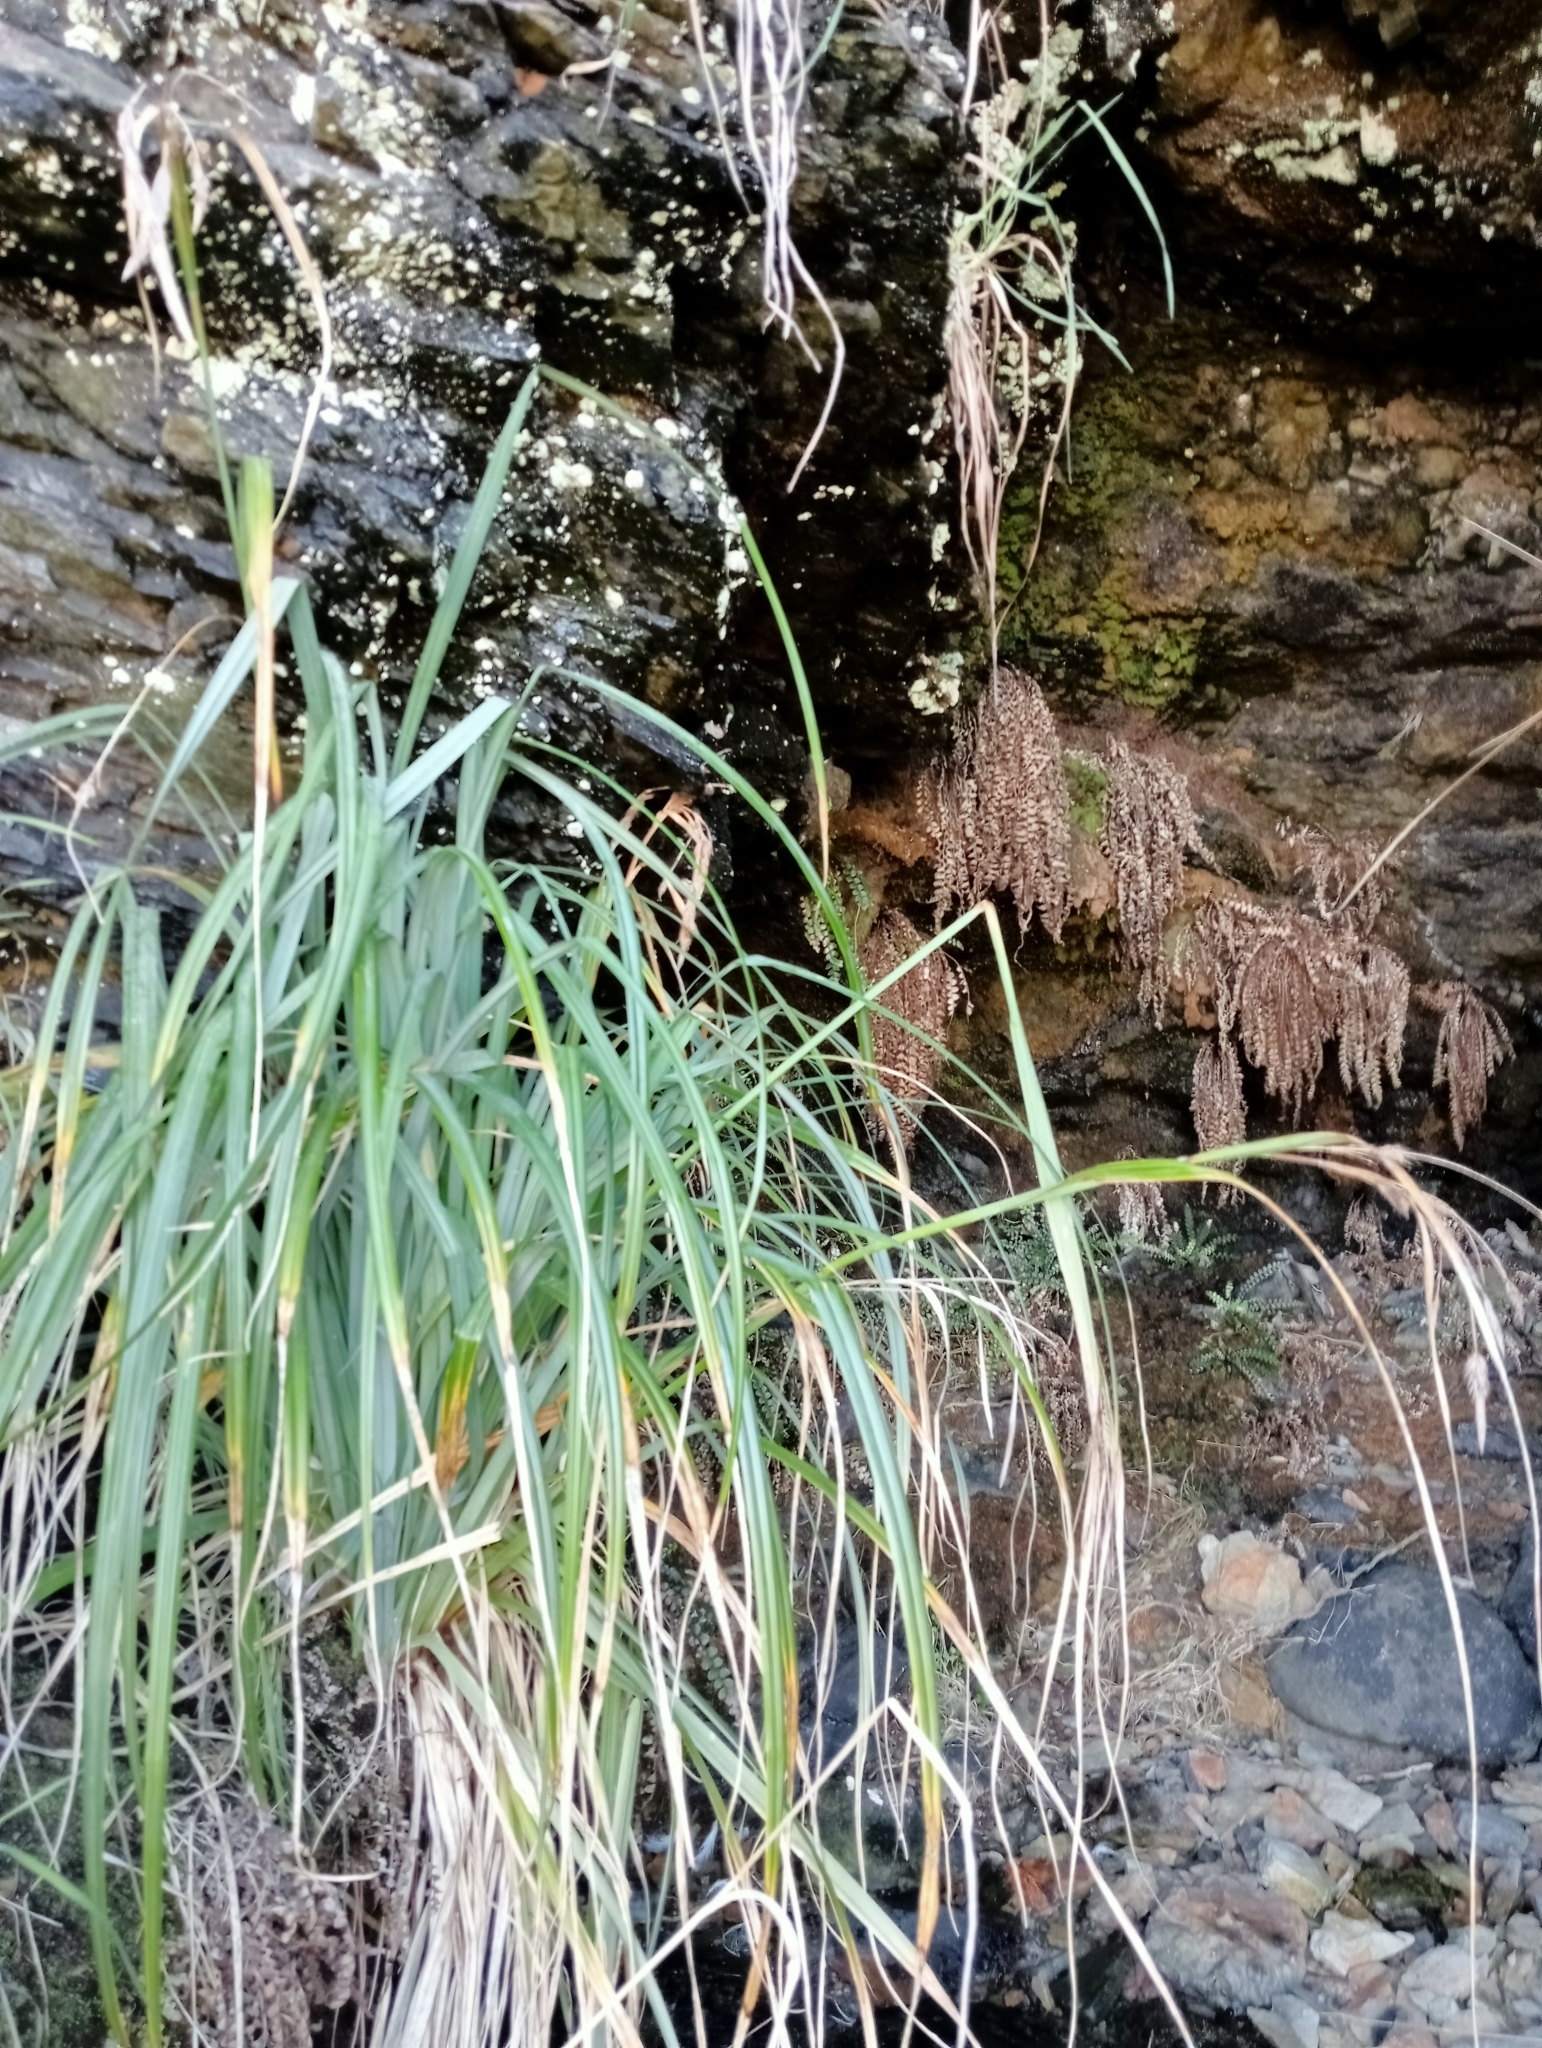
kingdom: Plantae
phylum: Tracheophyta
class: Liliopsida
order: Poales
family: Cyperaceae
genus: Carex
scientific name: Carex trifida
